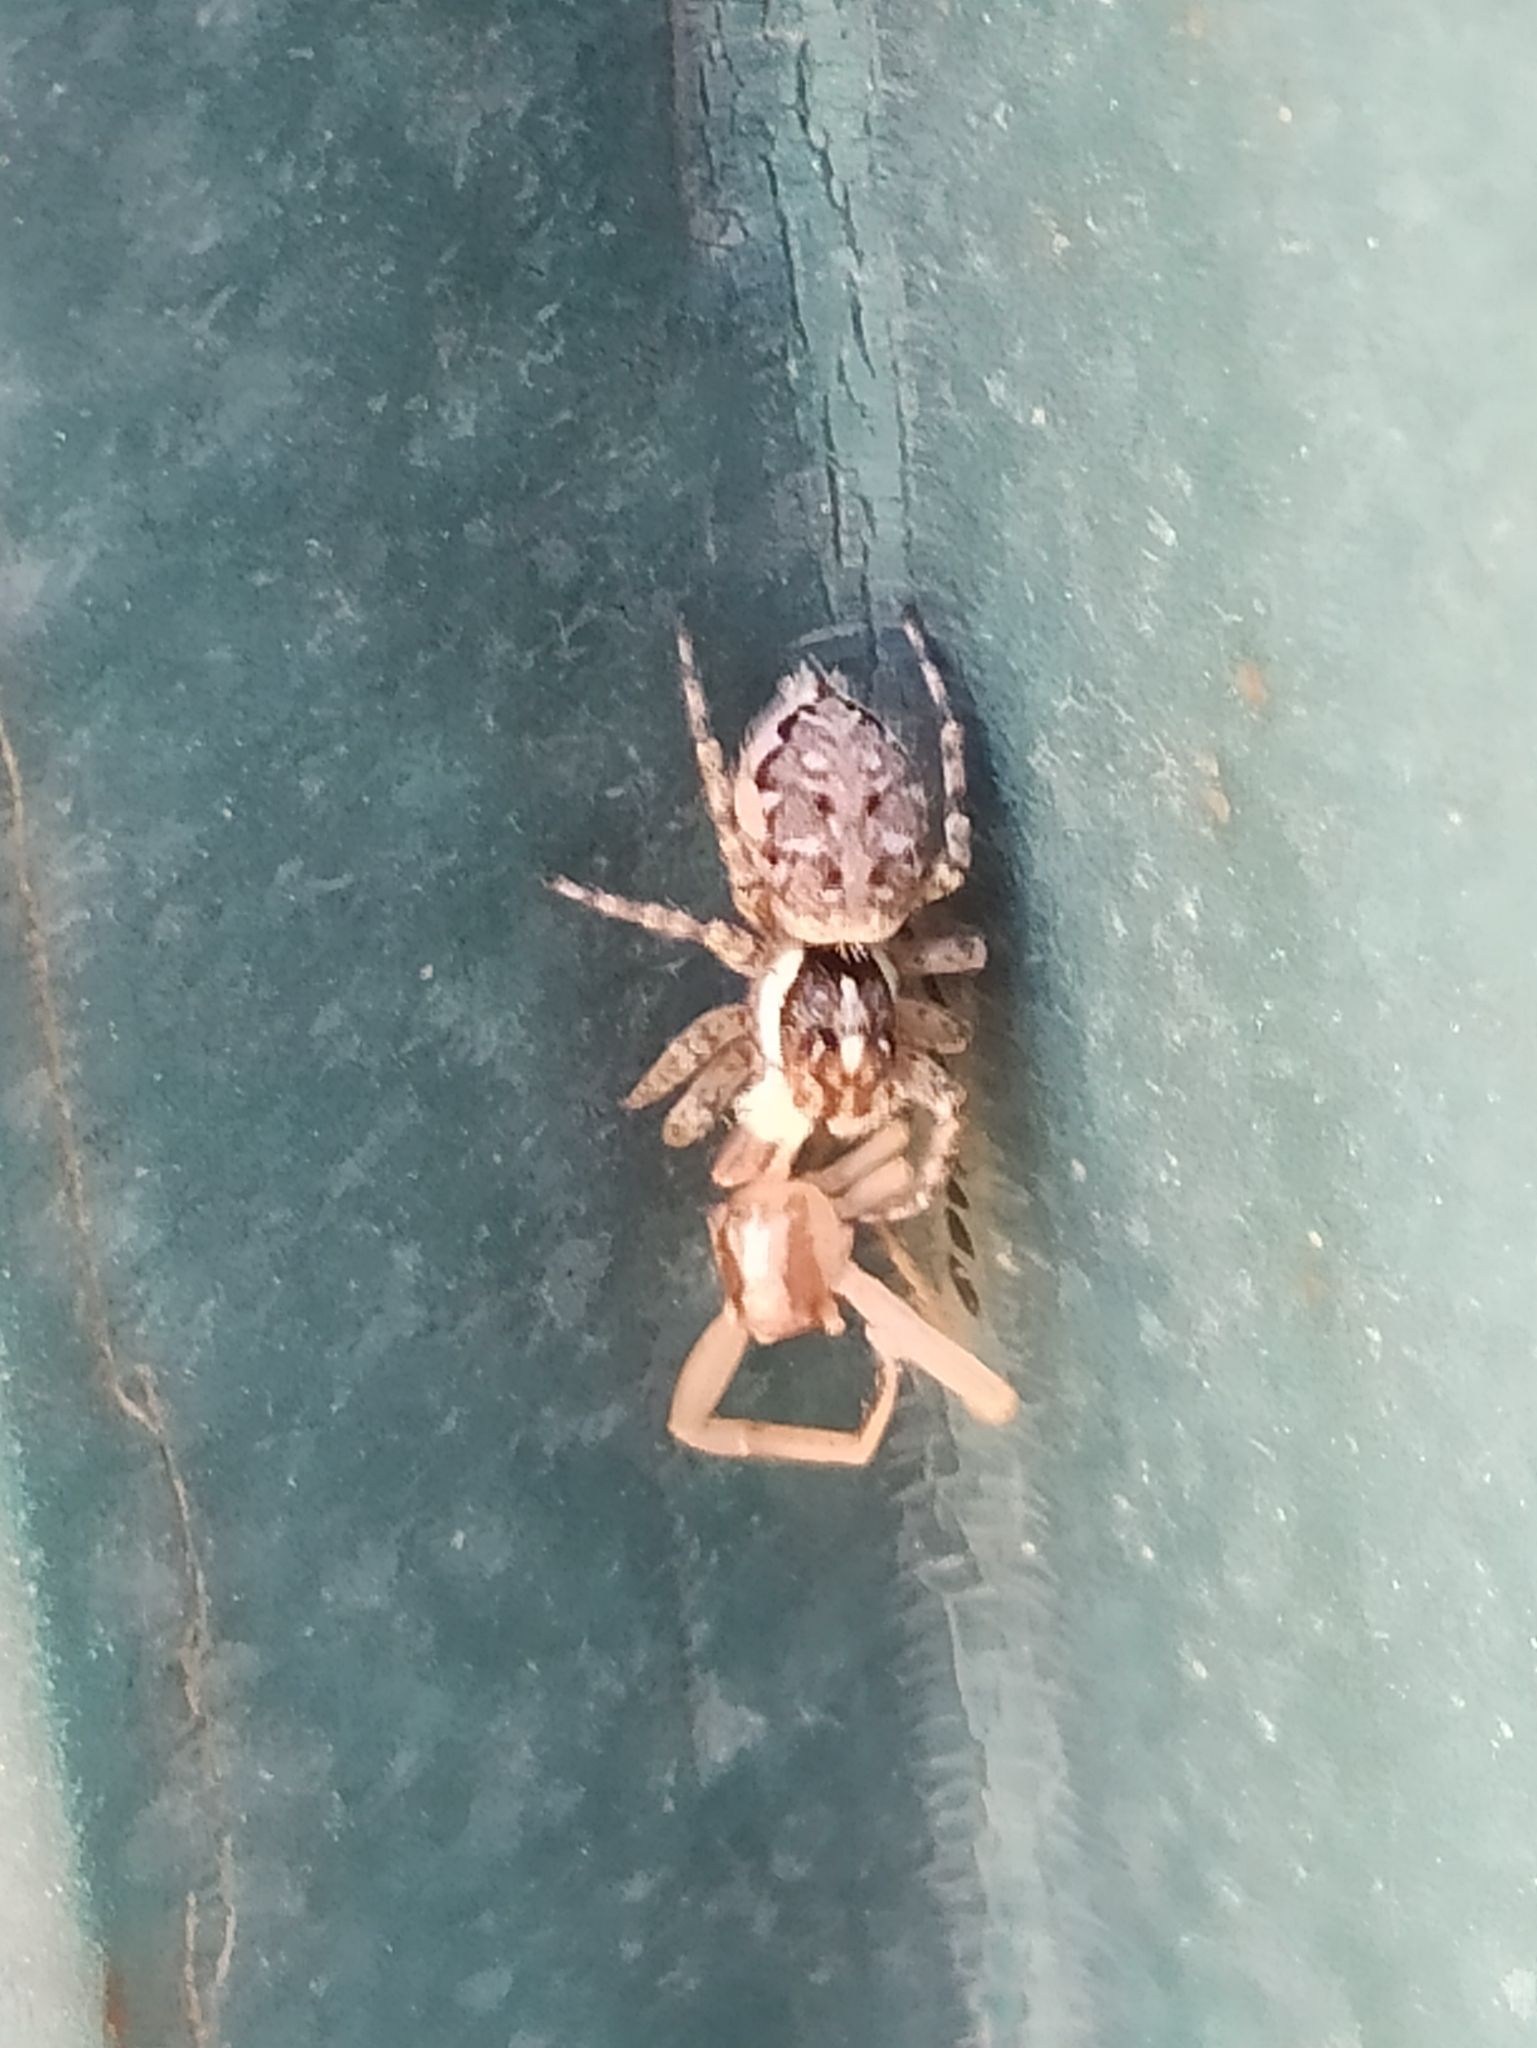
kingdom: Animalia
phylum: Arthropoda
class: Arachnida
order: Araneae
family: Salticidae
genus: Menemerus
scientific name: Menemerus semilimbatus
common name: Jumping spider
